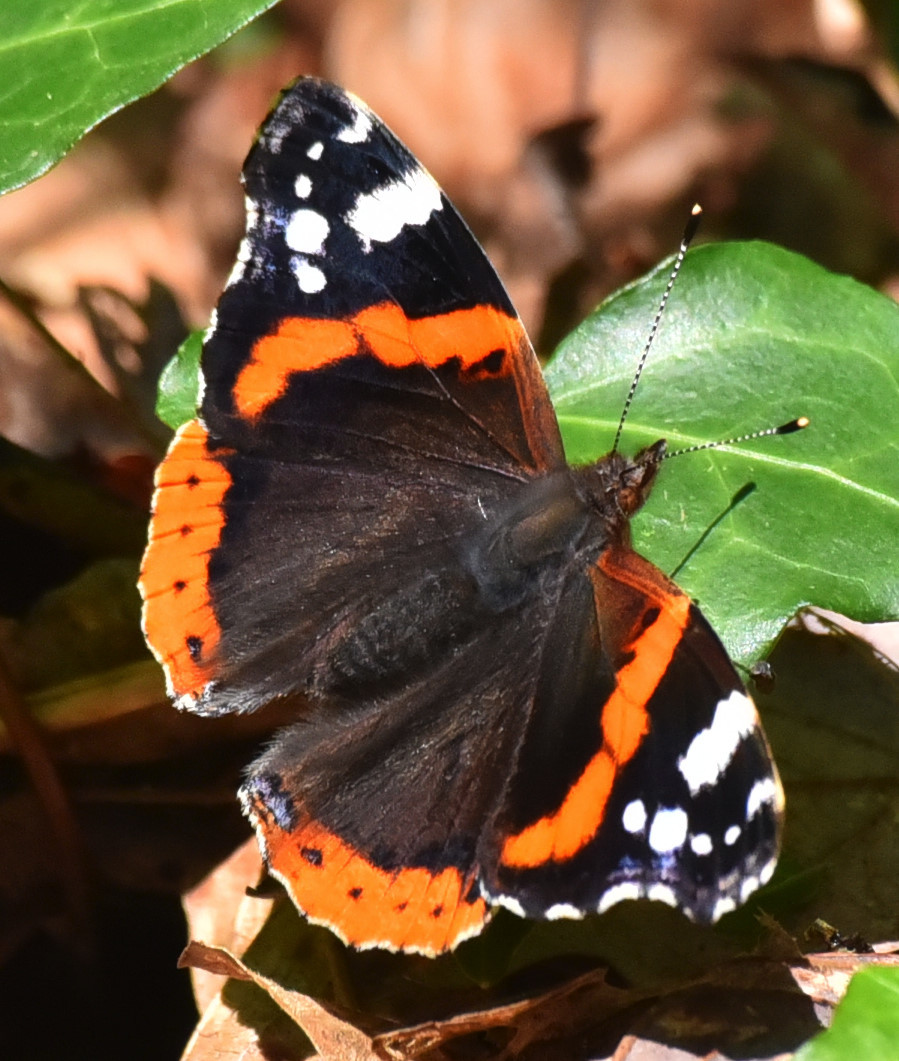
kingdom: Animalia
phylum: Arthropoda
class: Insecta
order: Lepidoptera
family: Nymphalidae
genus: Vanessa
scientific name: Vanessa atalanta
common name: Red admiral
